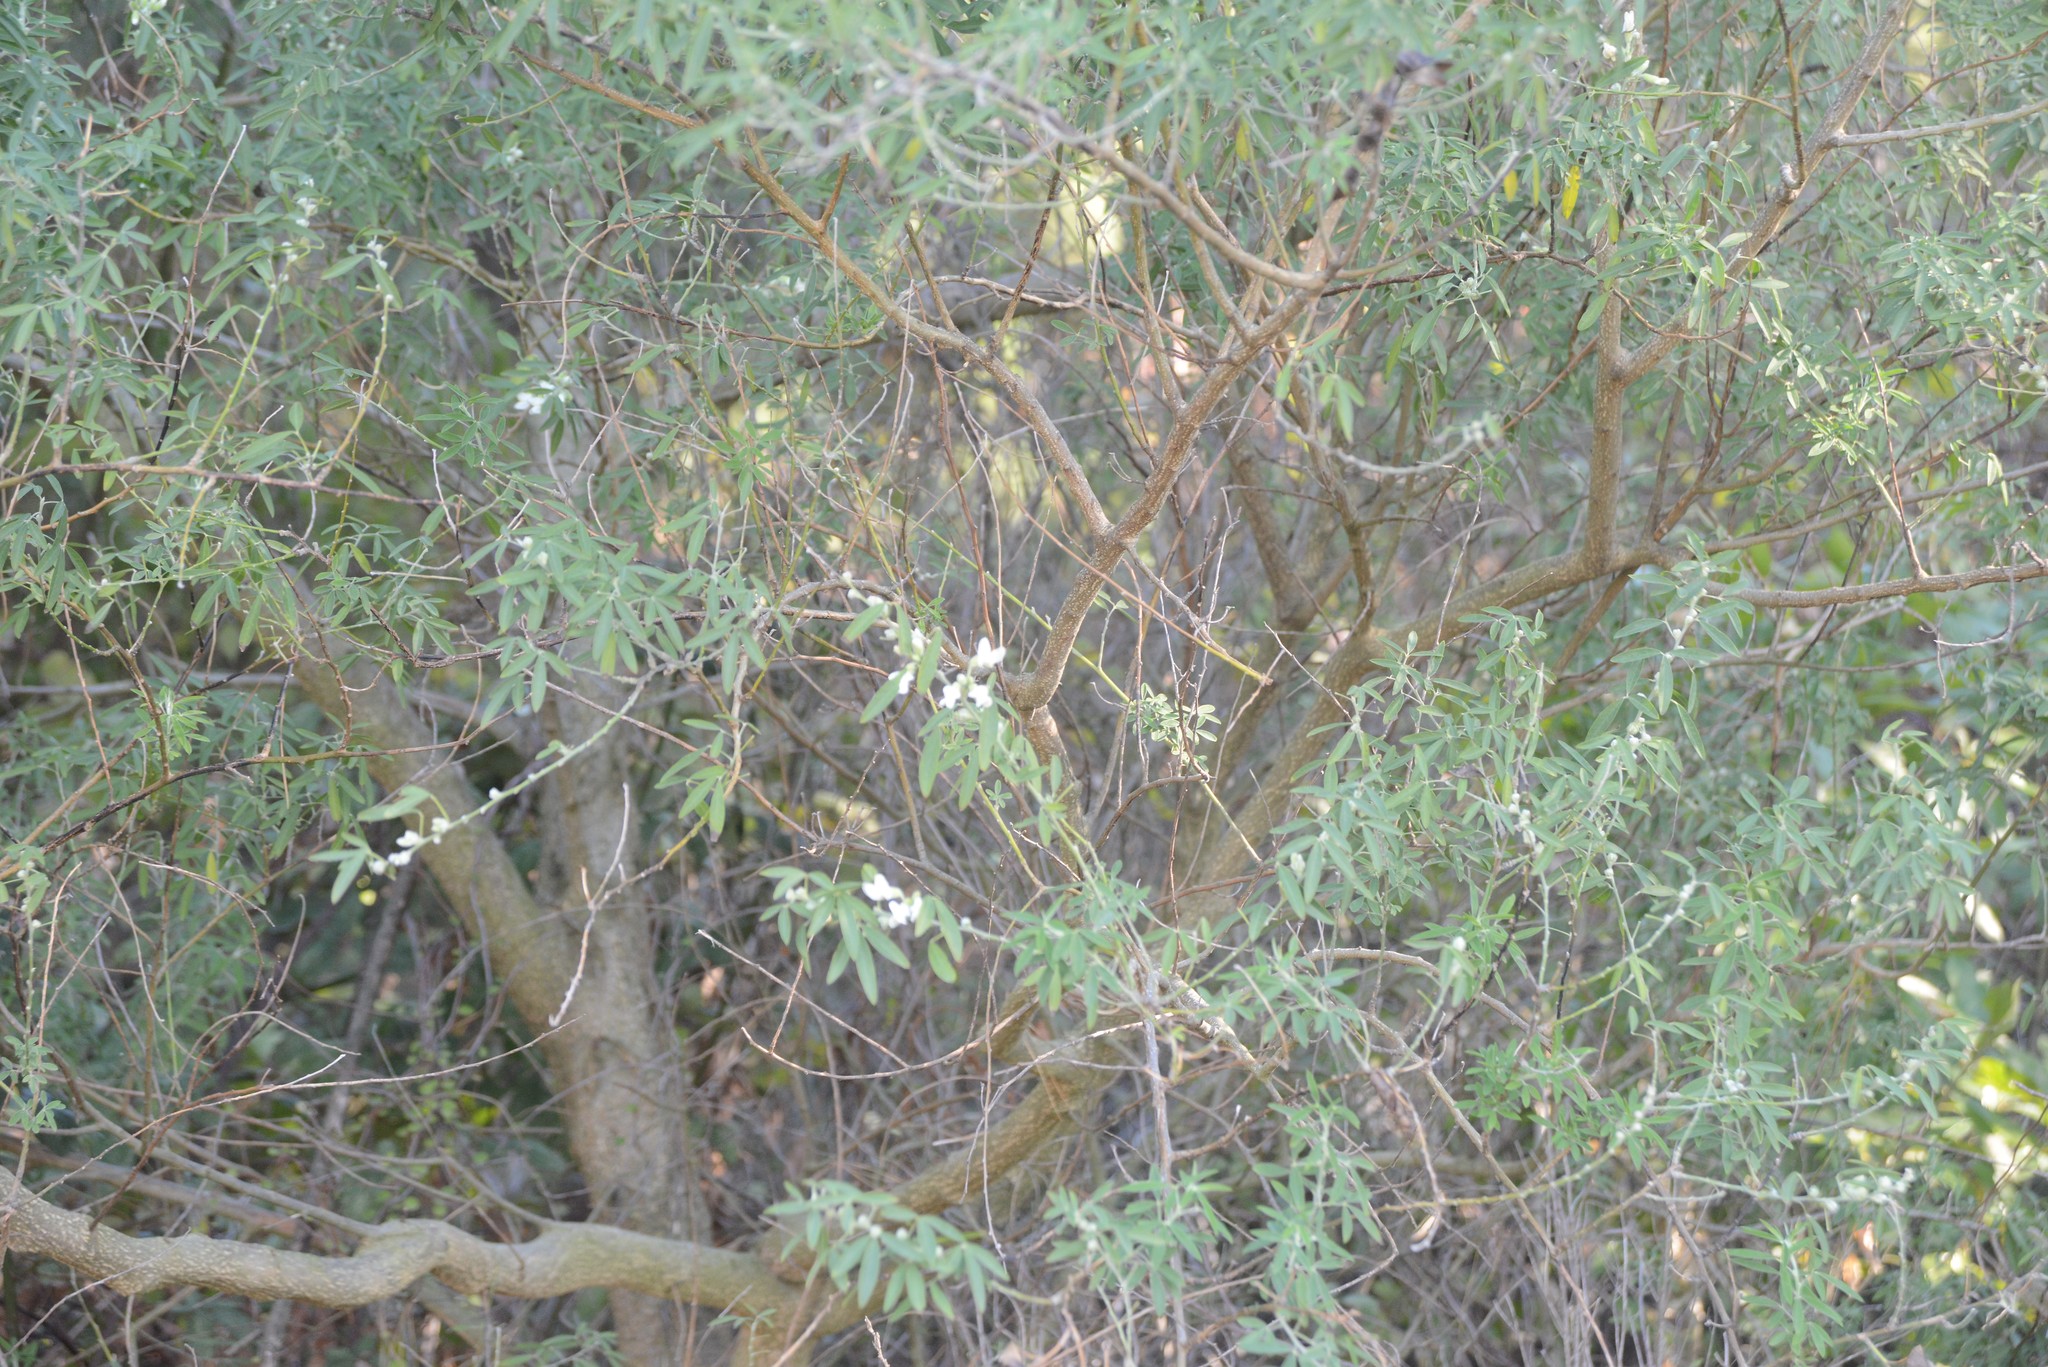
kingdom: Plantae
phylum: Tracheophyta
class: Magnoliopsida
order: Fabales
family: Fabaceae
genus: Chamaecytisus
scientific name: Chamaecytisus prolifer
